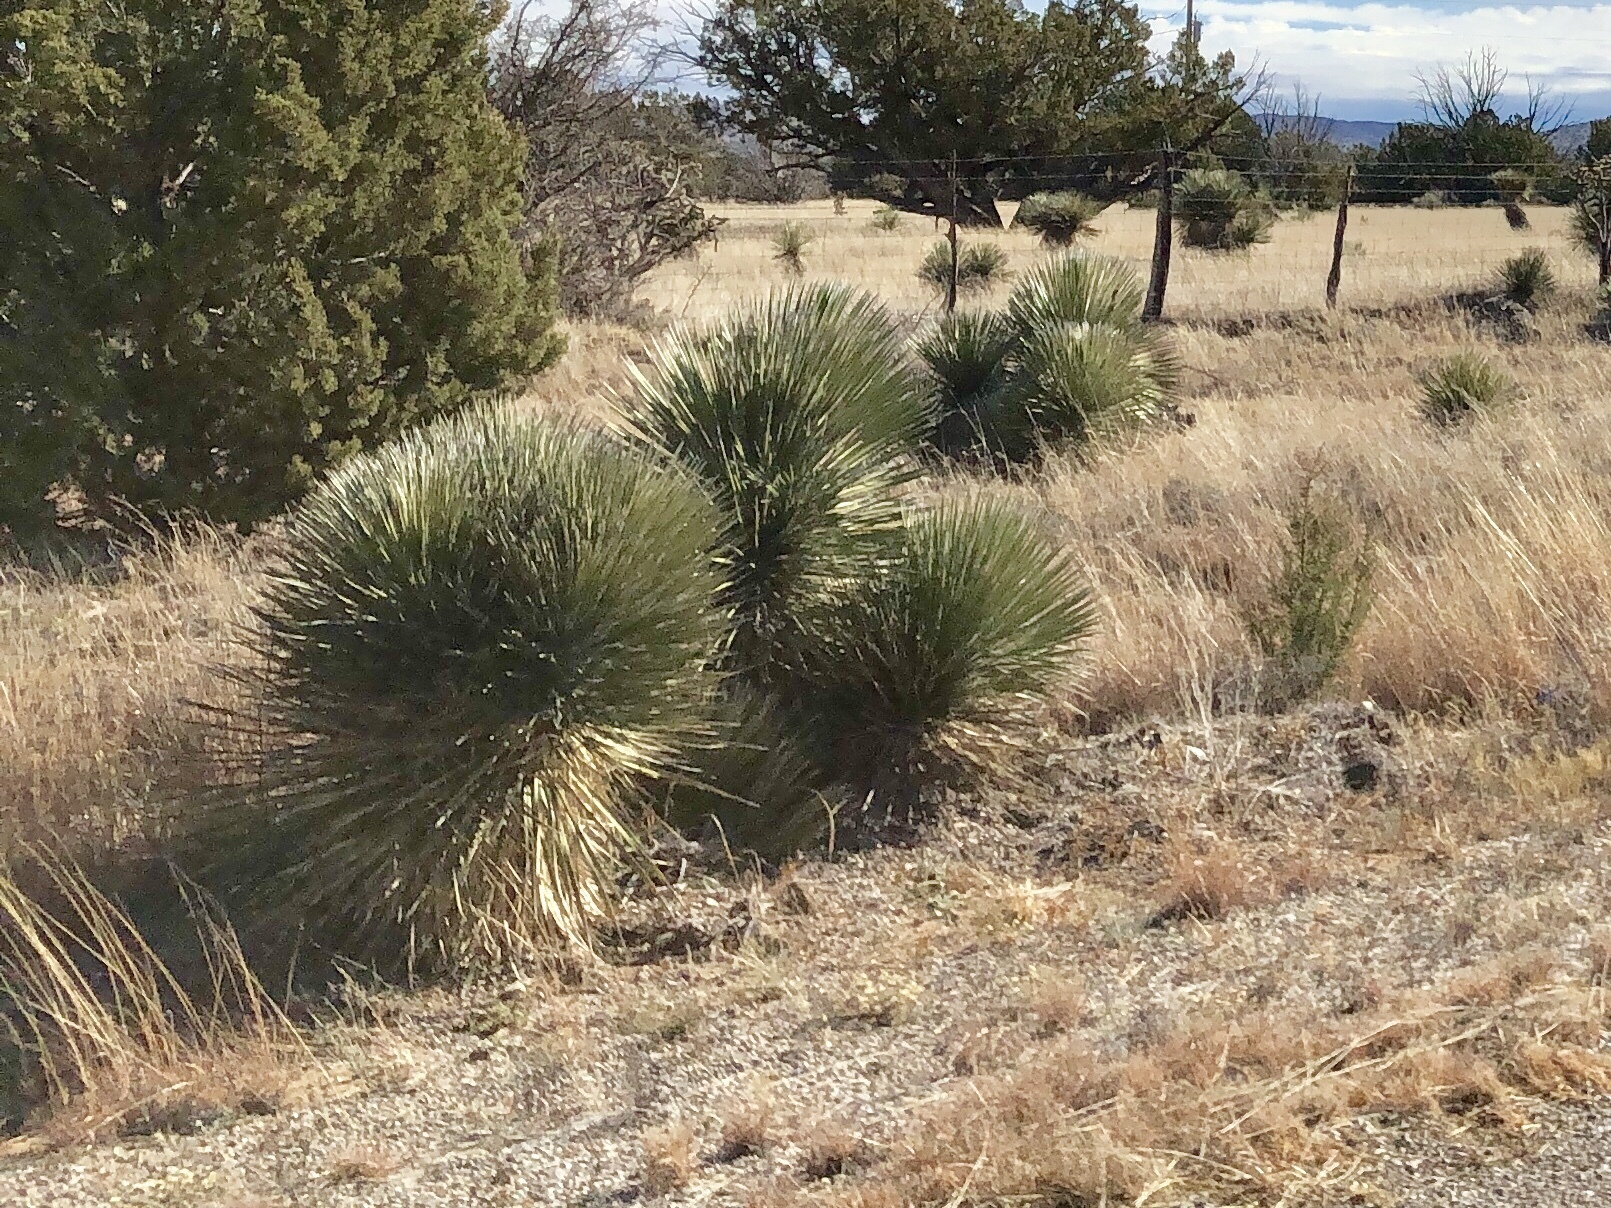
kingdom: Plantae
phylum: Tracheophyta
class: Liliopsida
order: Asparagales
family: Asparagaceae
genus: Yucca
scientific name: Yucca elata
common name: Palmella
